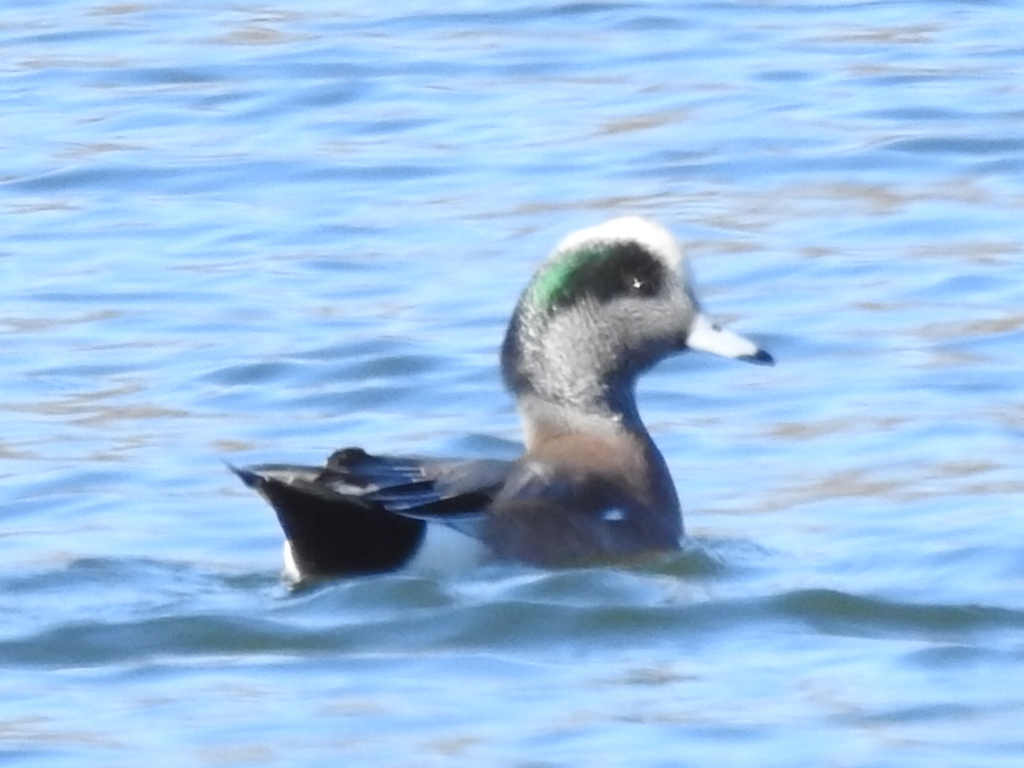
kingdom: Animalia
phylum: Chordata
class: Aves
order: Anseriformes
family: Anatidae
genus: Mareca
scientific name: Mareca americana
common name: American wigeon
